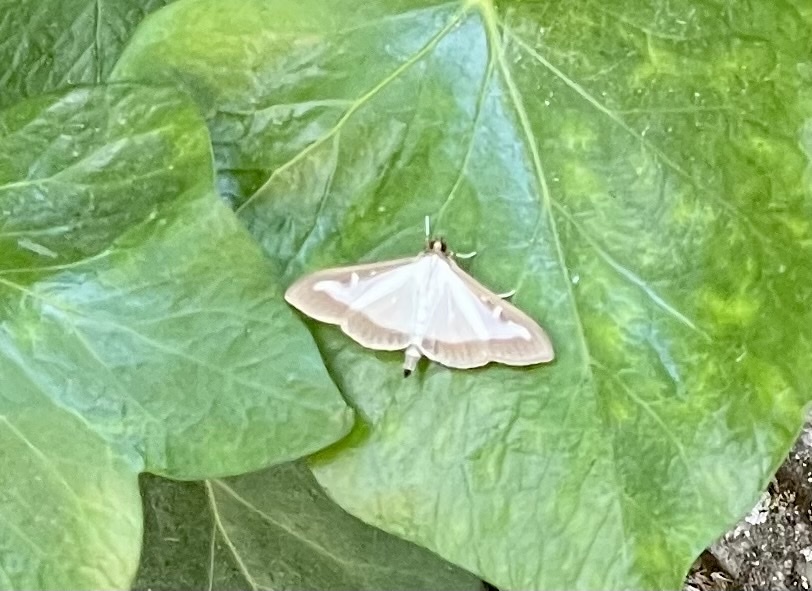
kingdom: Animalia
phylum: Arthropoda
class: Insecta
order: Lepidoptera
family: Crambidae
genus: Cydalima
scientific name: Cydalima perspectalis
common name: Box tree moth
